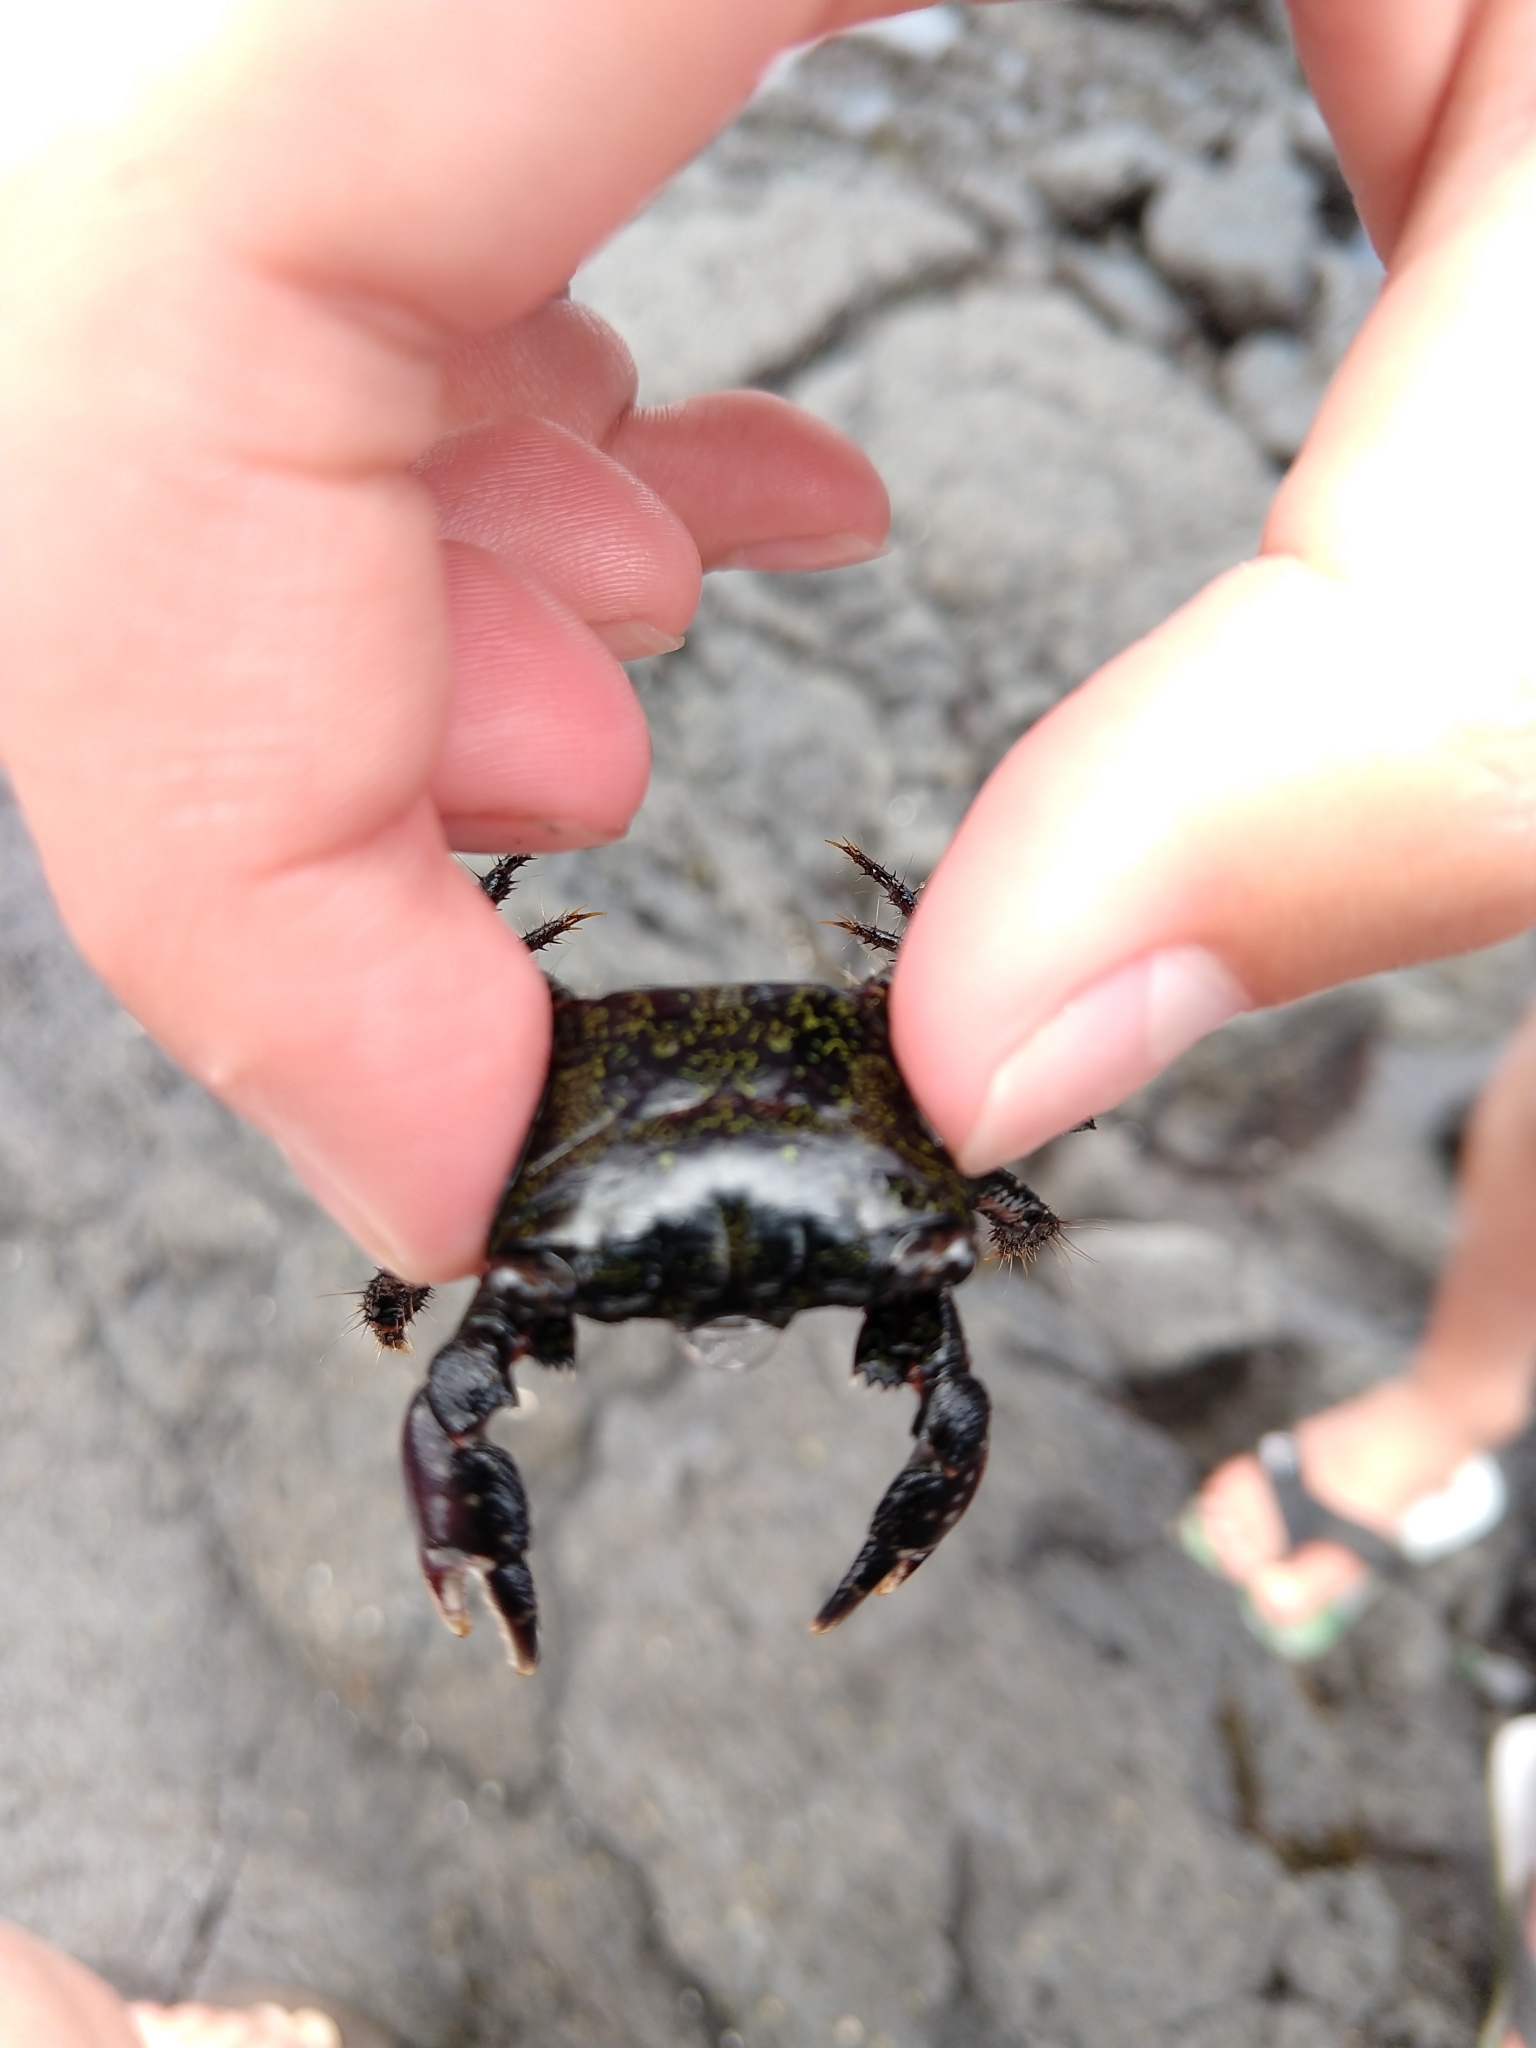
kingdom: Animalia
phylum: Arthropoda
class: Malacostraca
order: Decapoda
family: Grapsidae
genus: Metopograpsus
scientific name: Metopograpsus thukuhar
